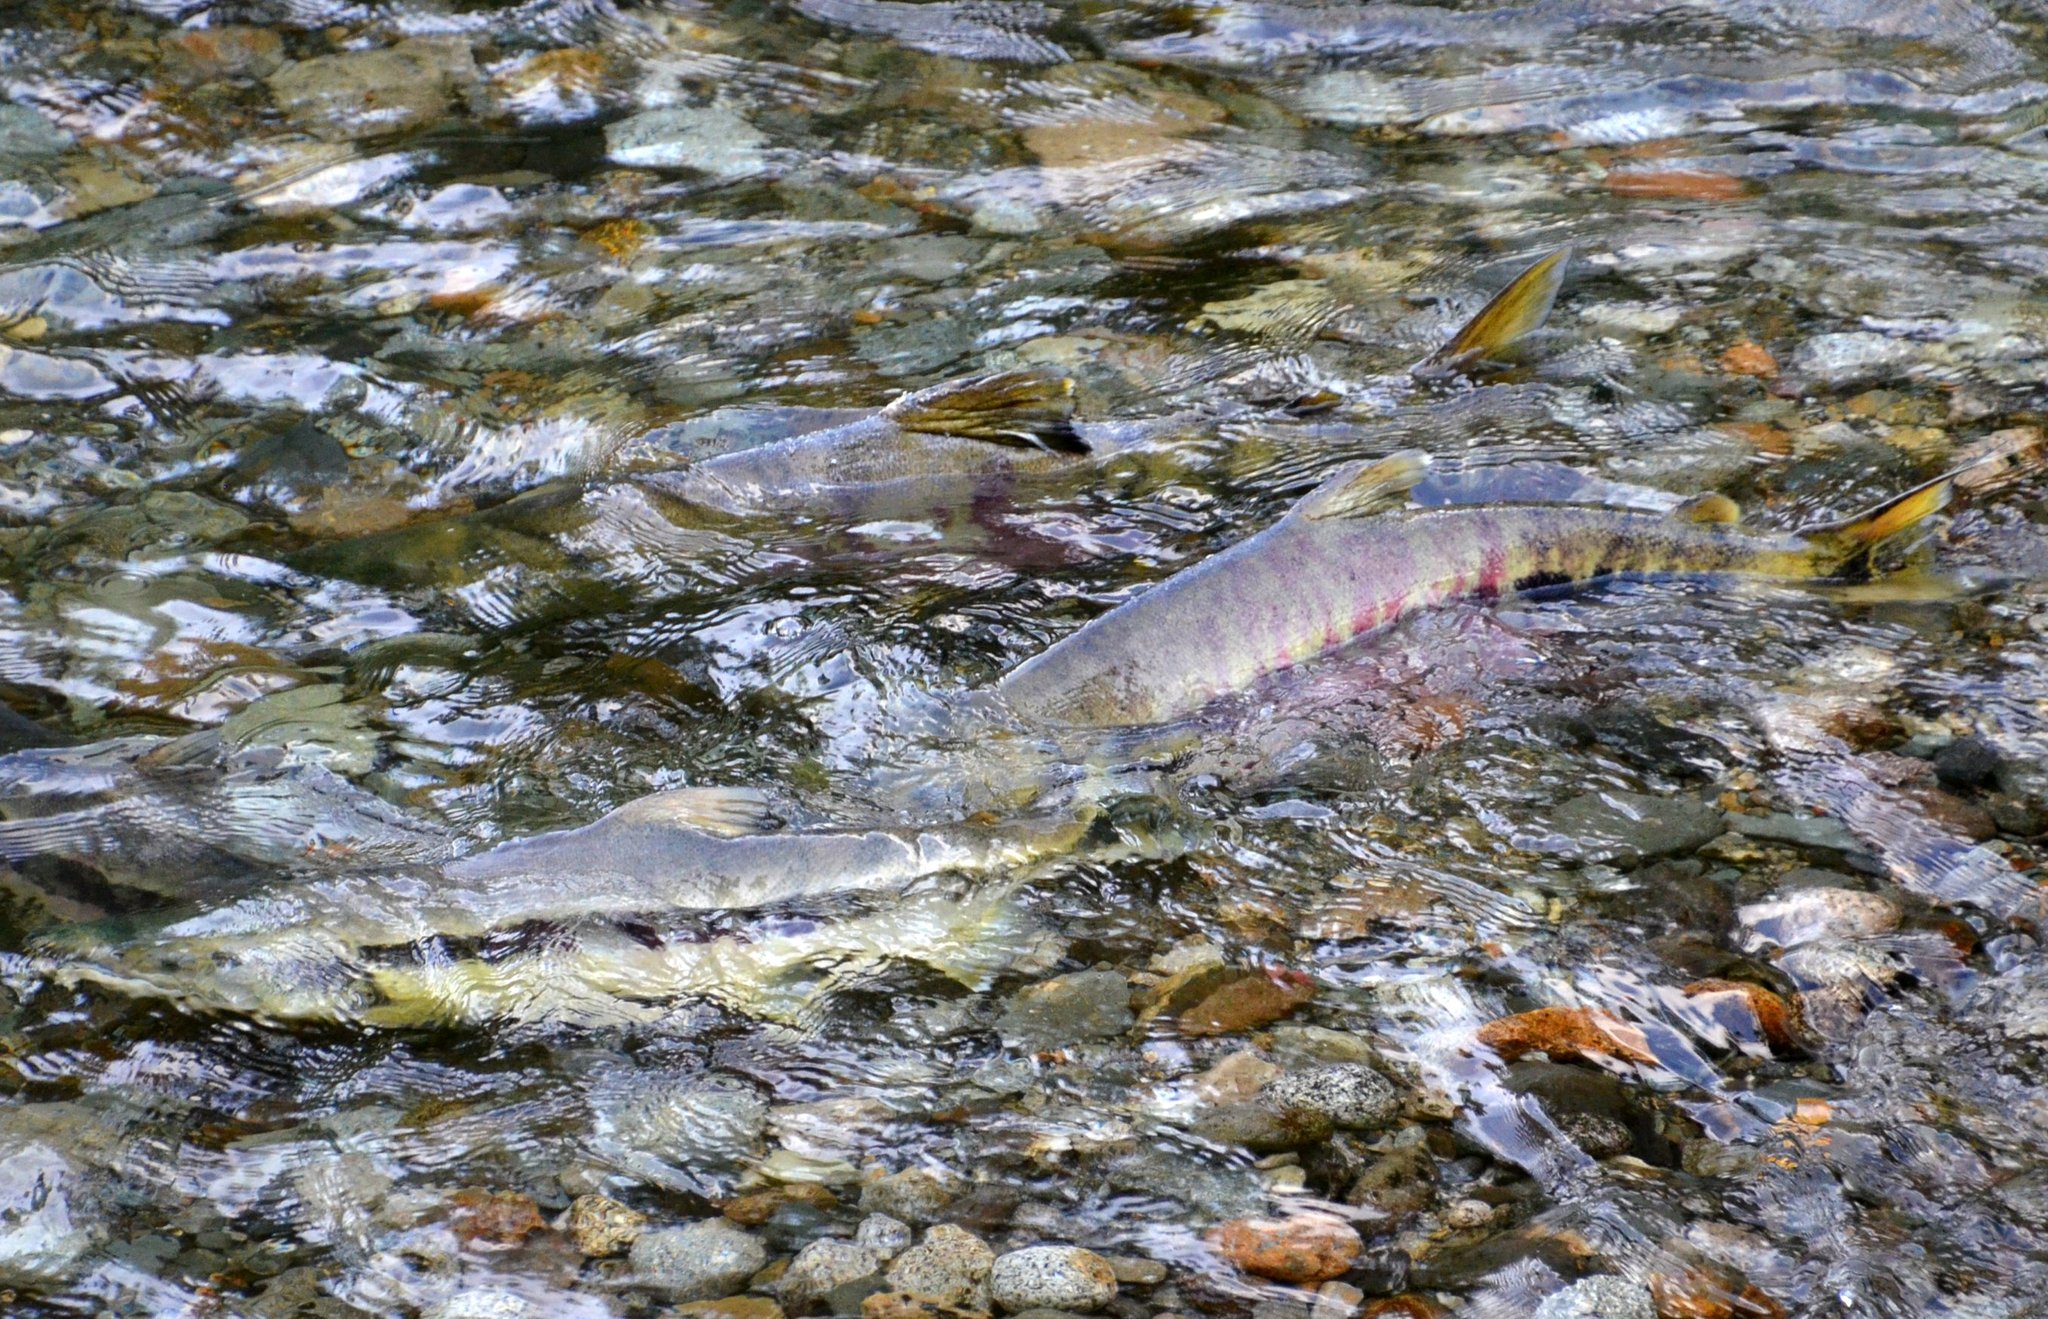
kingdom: Animalia
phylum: Chordata
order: Salmoniformes
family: Salmonidae
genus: Oncorhynchus
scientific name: Oncorhynchus keta
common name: Chum salmon
